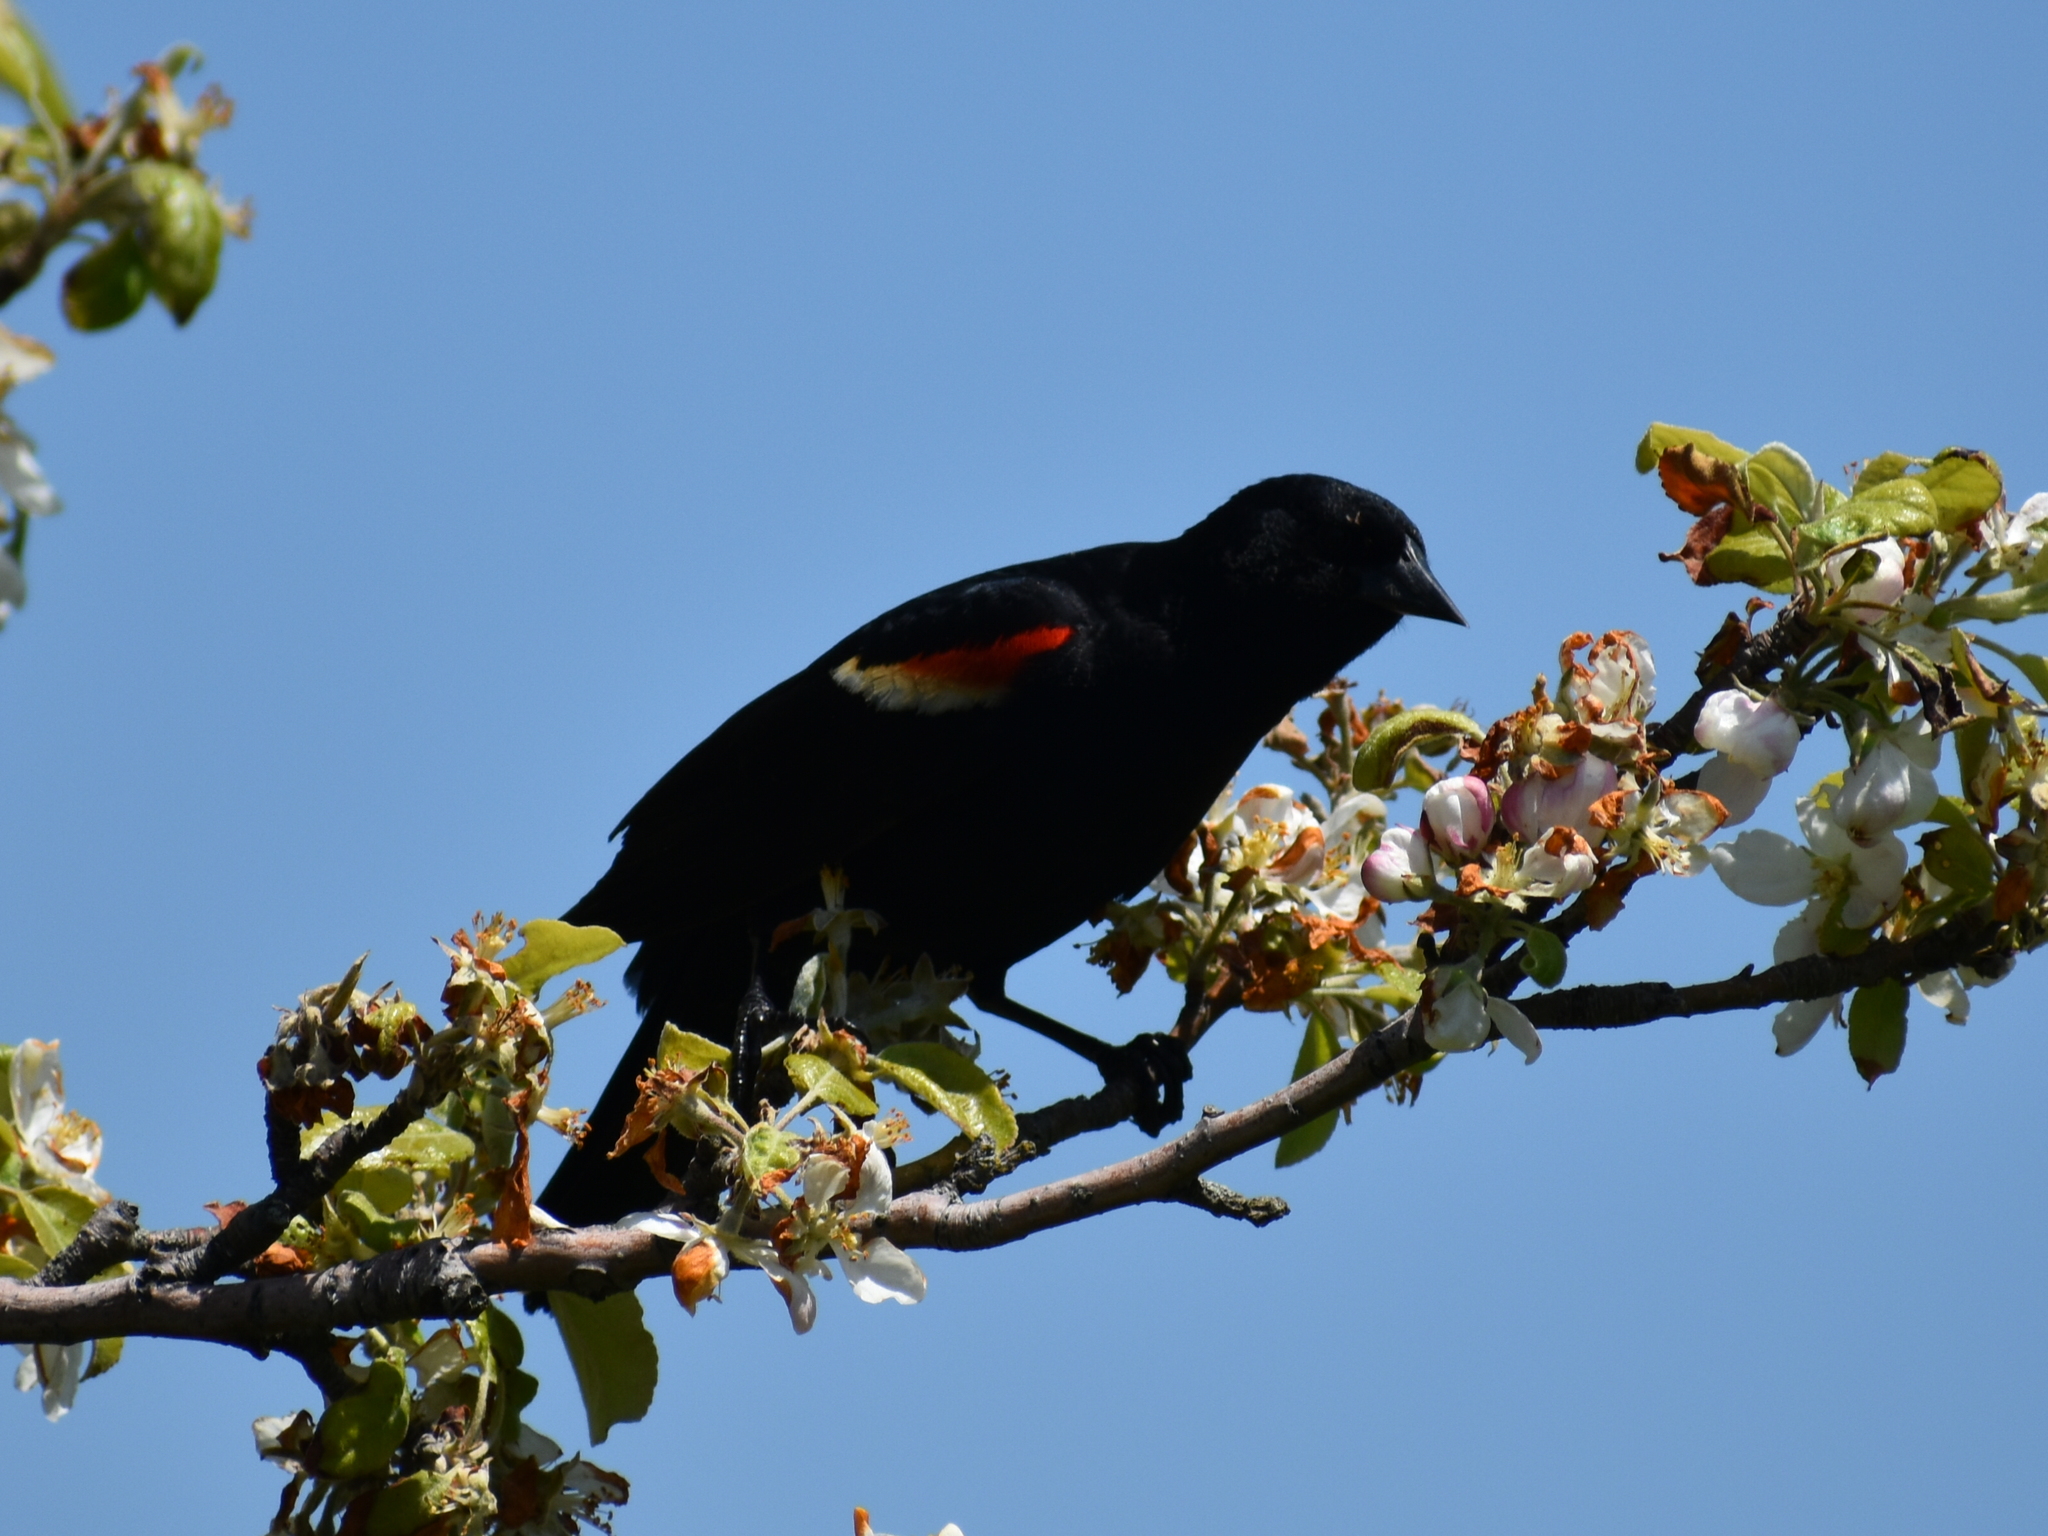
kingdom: Animalia
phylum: Chordata
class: Aves
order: Passeriformes
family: Icteridae
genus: Agelaius
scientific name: Agelaius phoeniceus
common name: Red-winged blackbird
